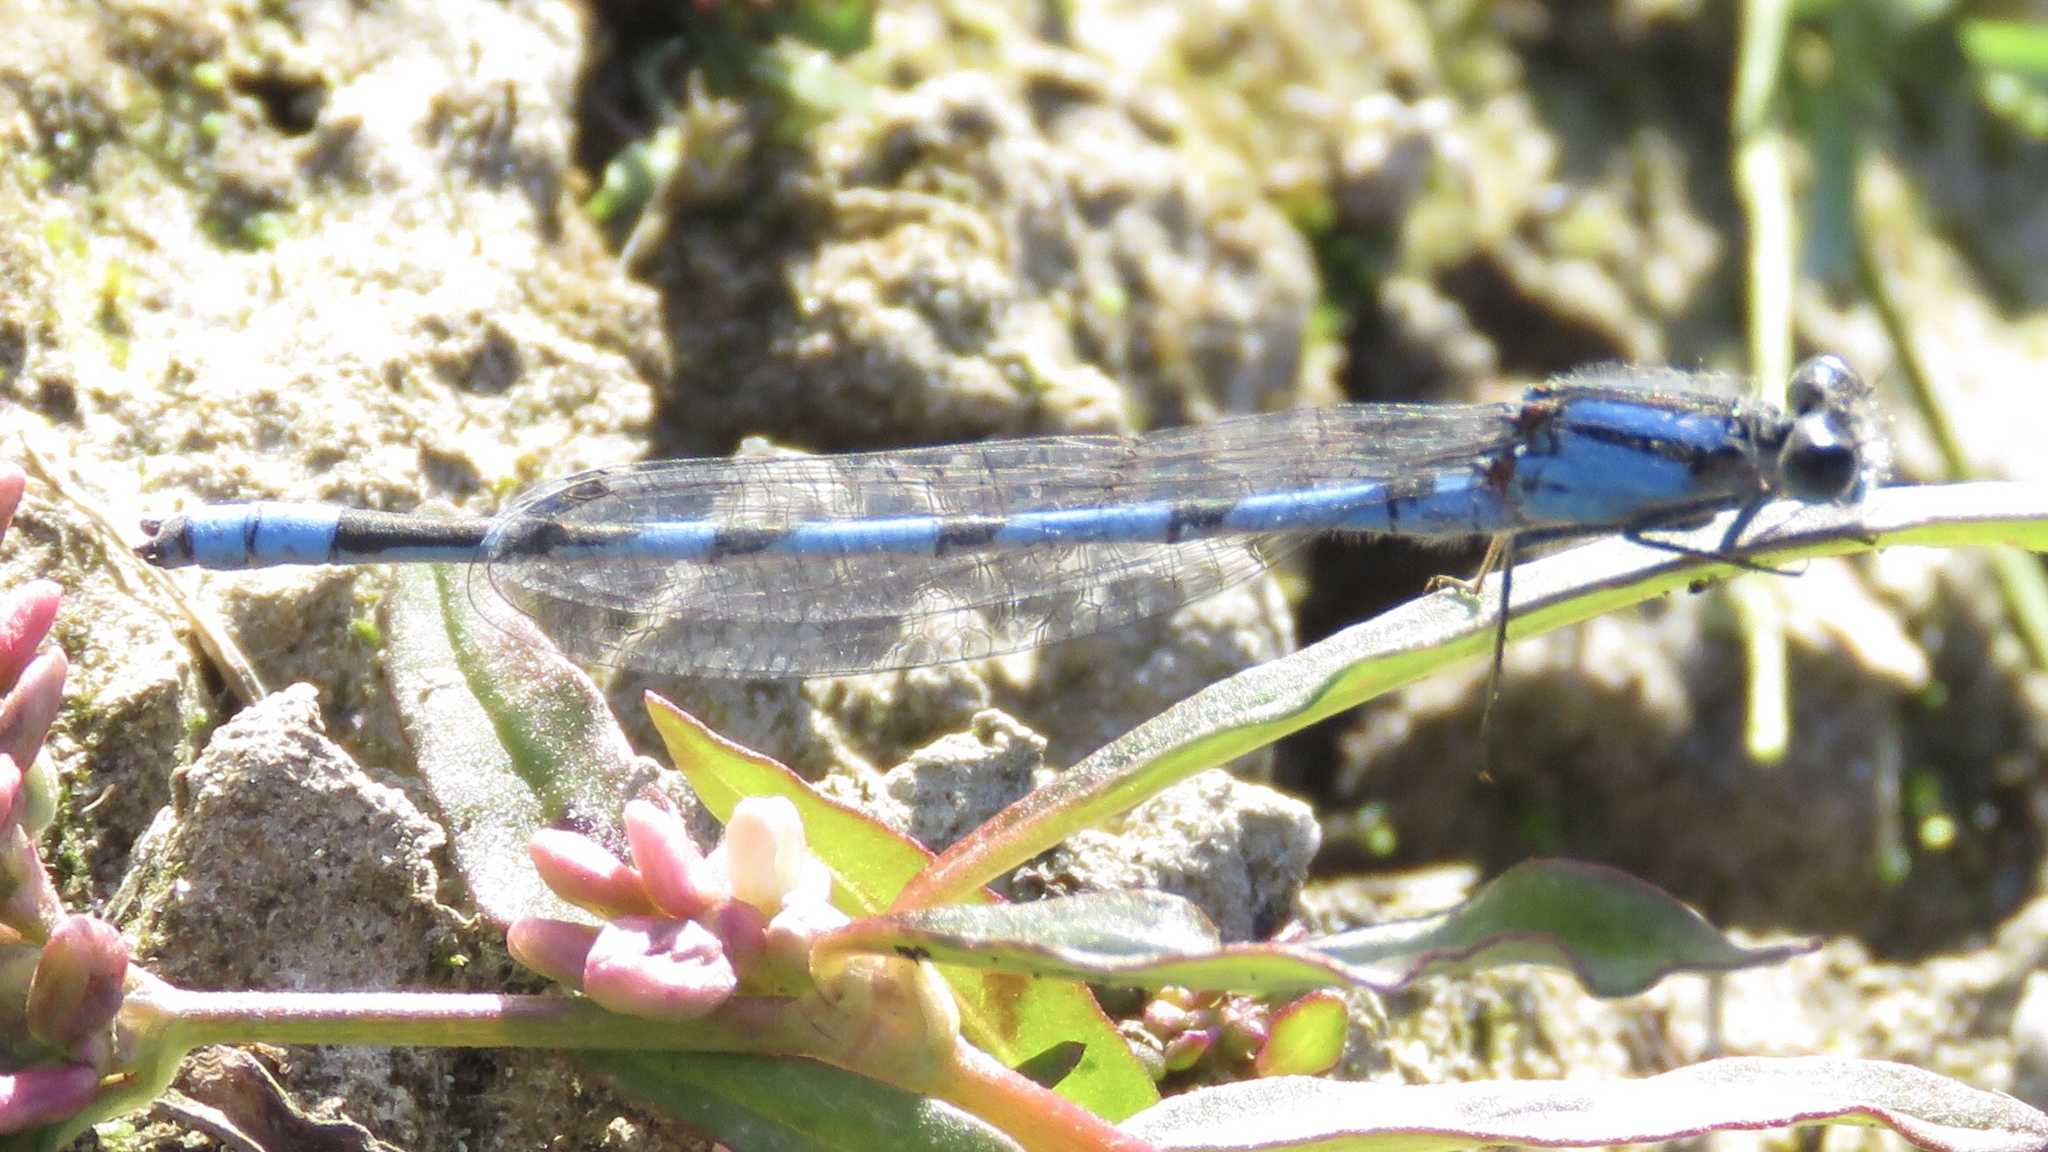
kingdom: Animalia
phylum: Arthropoda
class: Insecta
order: Odonata
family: Coenagrionidae
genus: Enallagma
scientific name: Enallagma civile
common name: Damselfly
